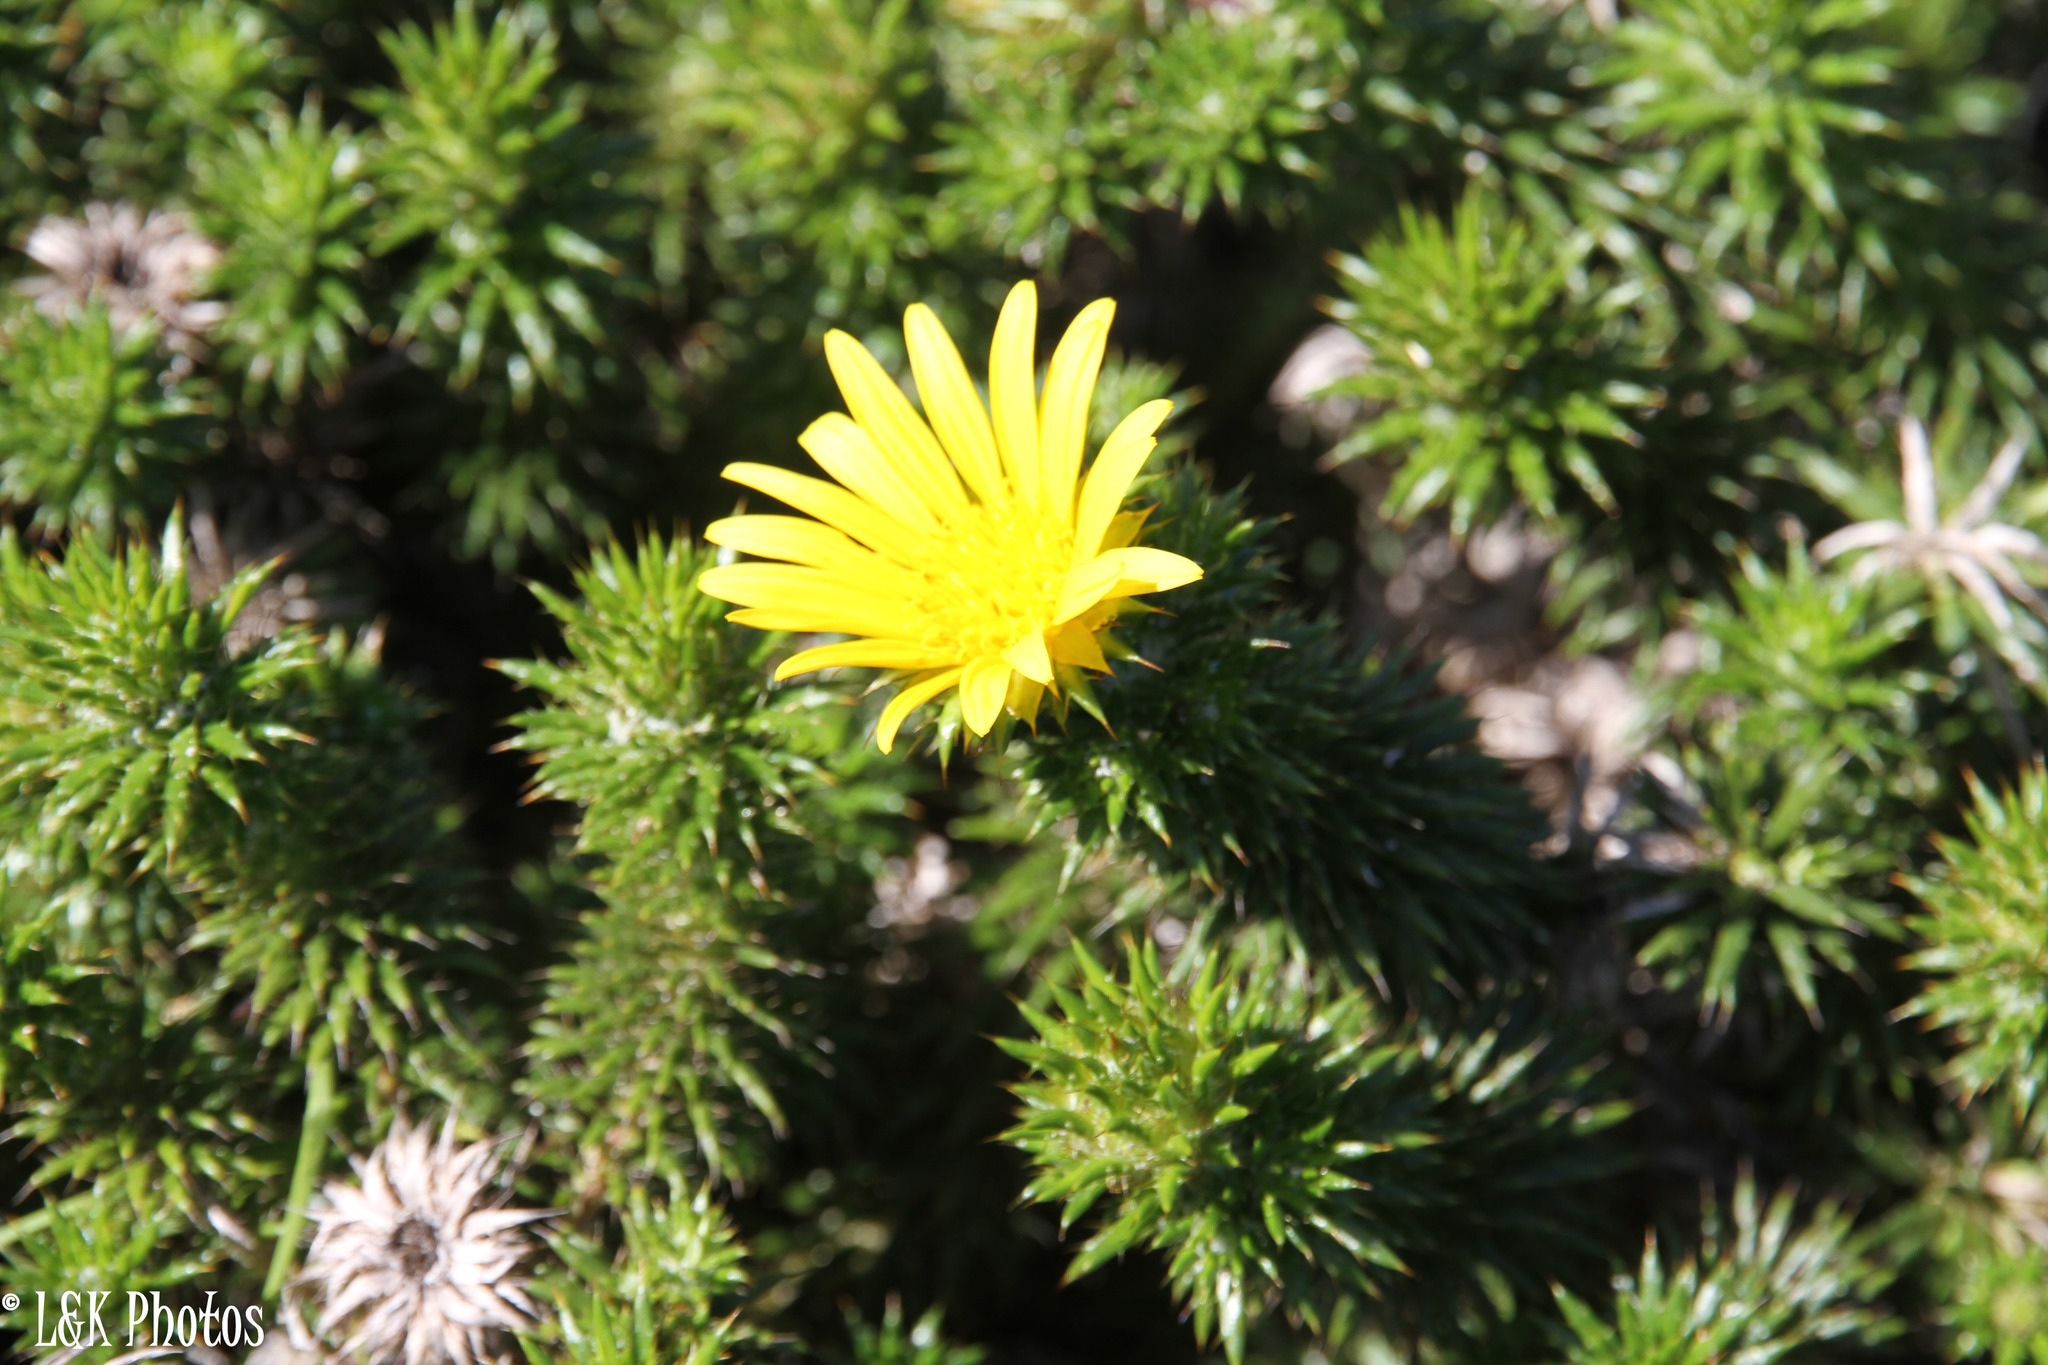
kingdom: Plantae
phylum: Tracheophyta
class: Magnoliopsida
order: Asterales
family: Asteraceae
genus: Cullumia
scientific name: Cullumia squarrosa
